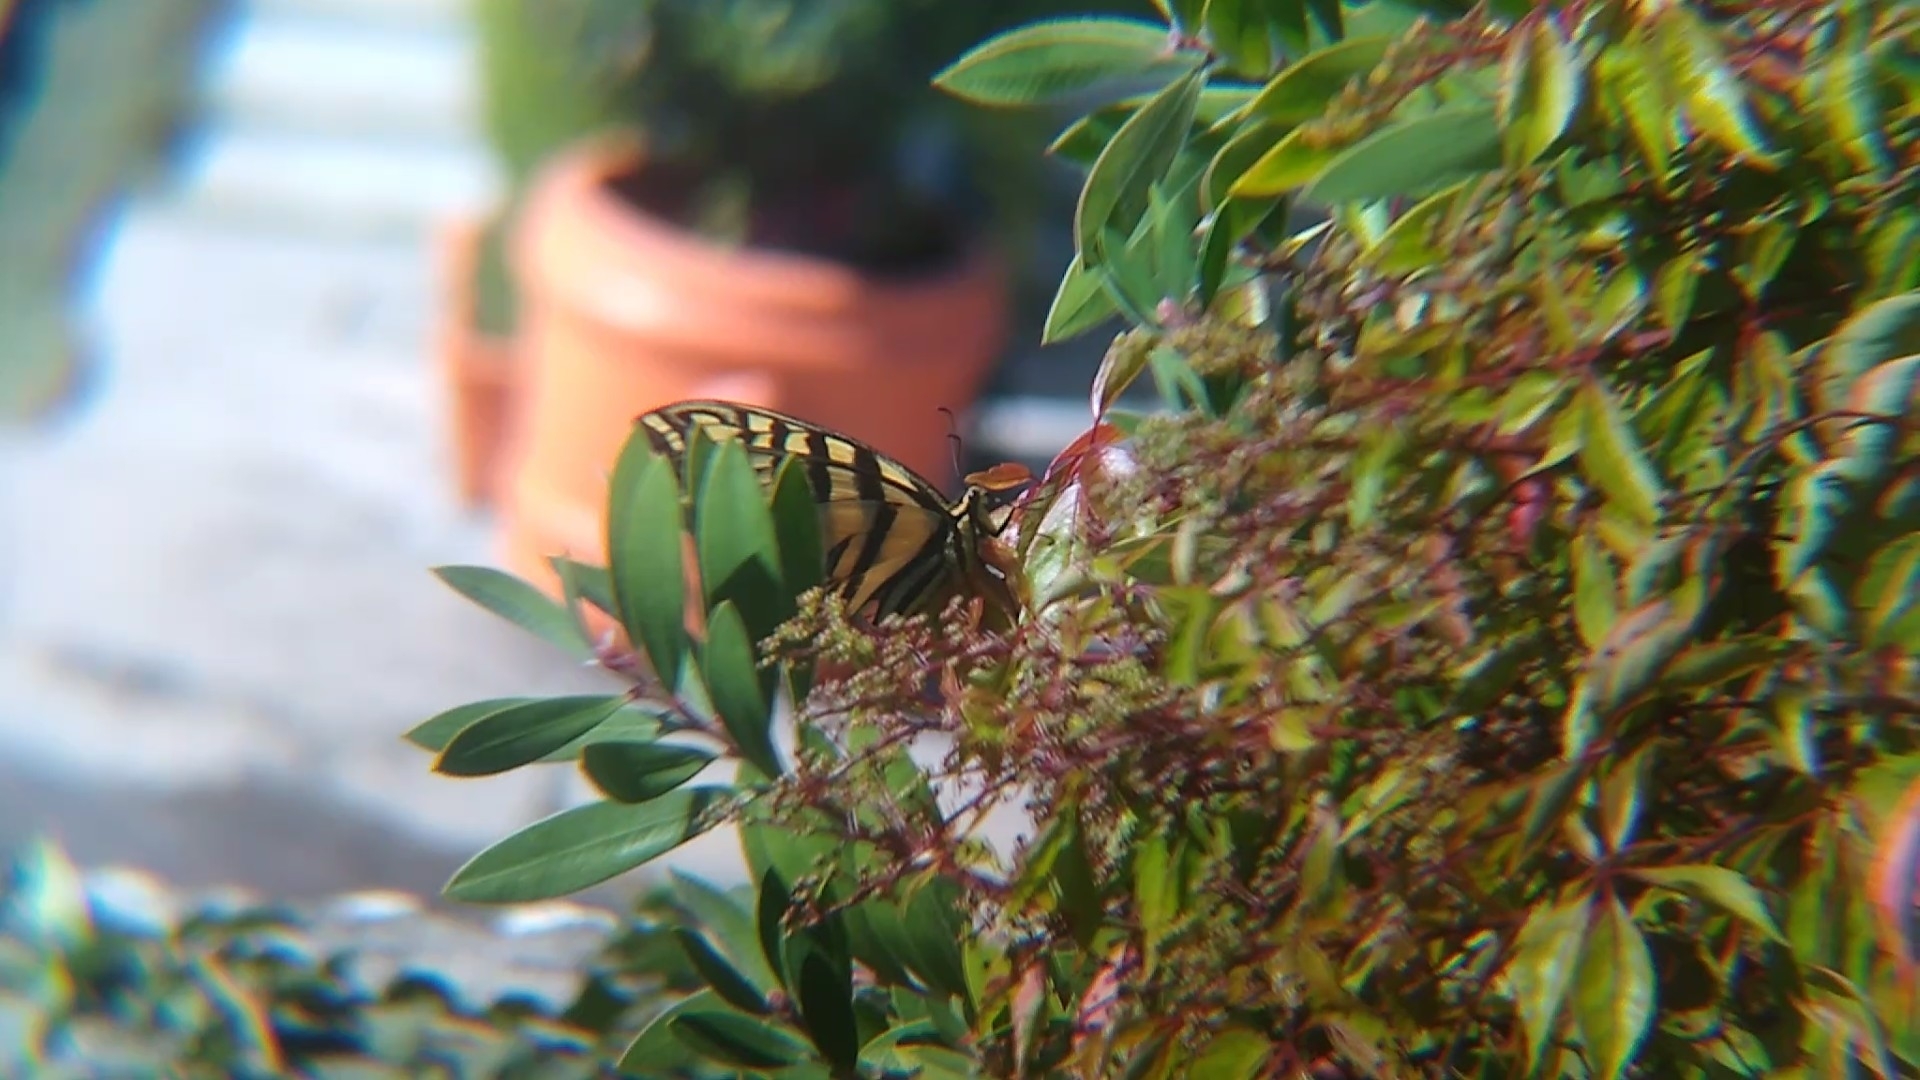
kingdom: Animalia
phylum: Arthropoda
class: Insecta
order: Lepidoptera
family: Papilionidae
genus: Papilio
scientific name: Papilio multicaudata
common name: Two-tailed tiger swallowtail
